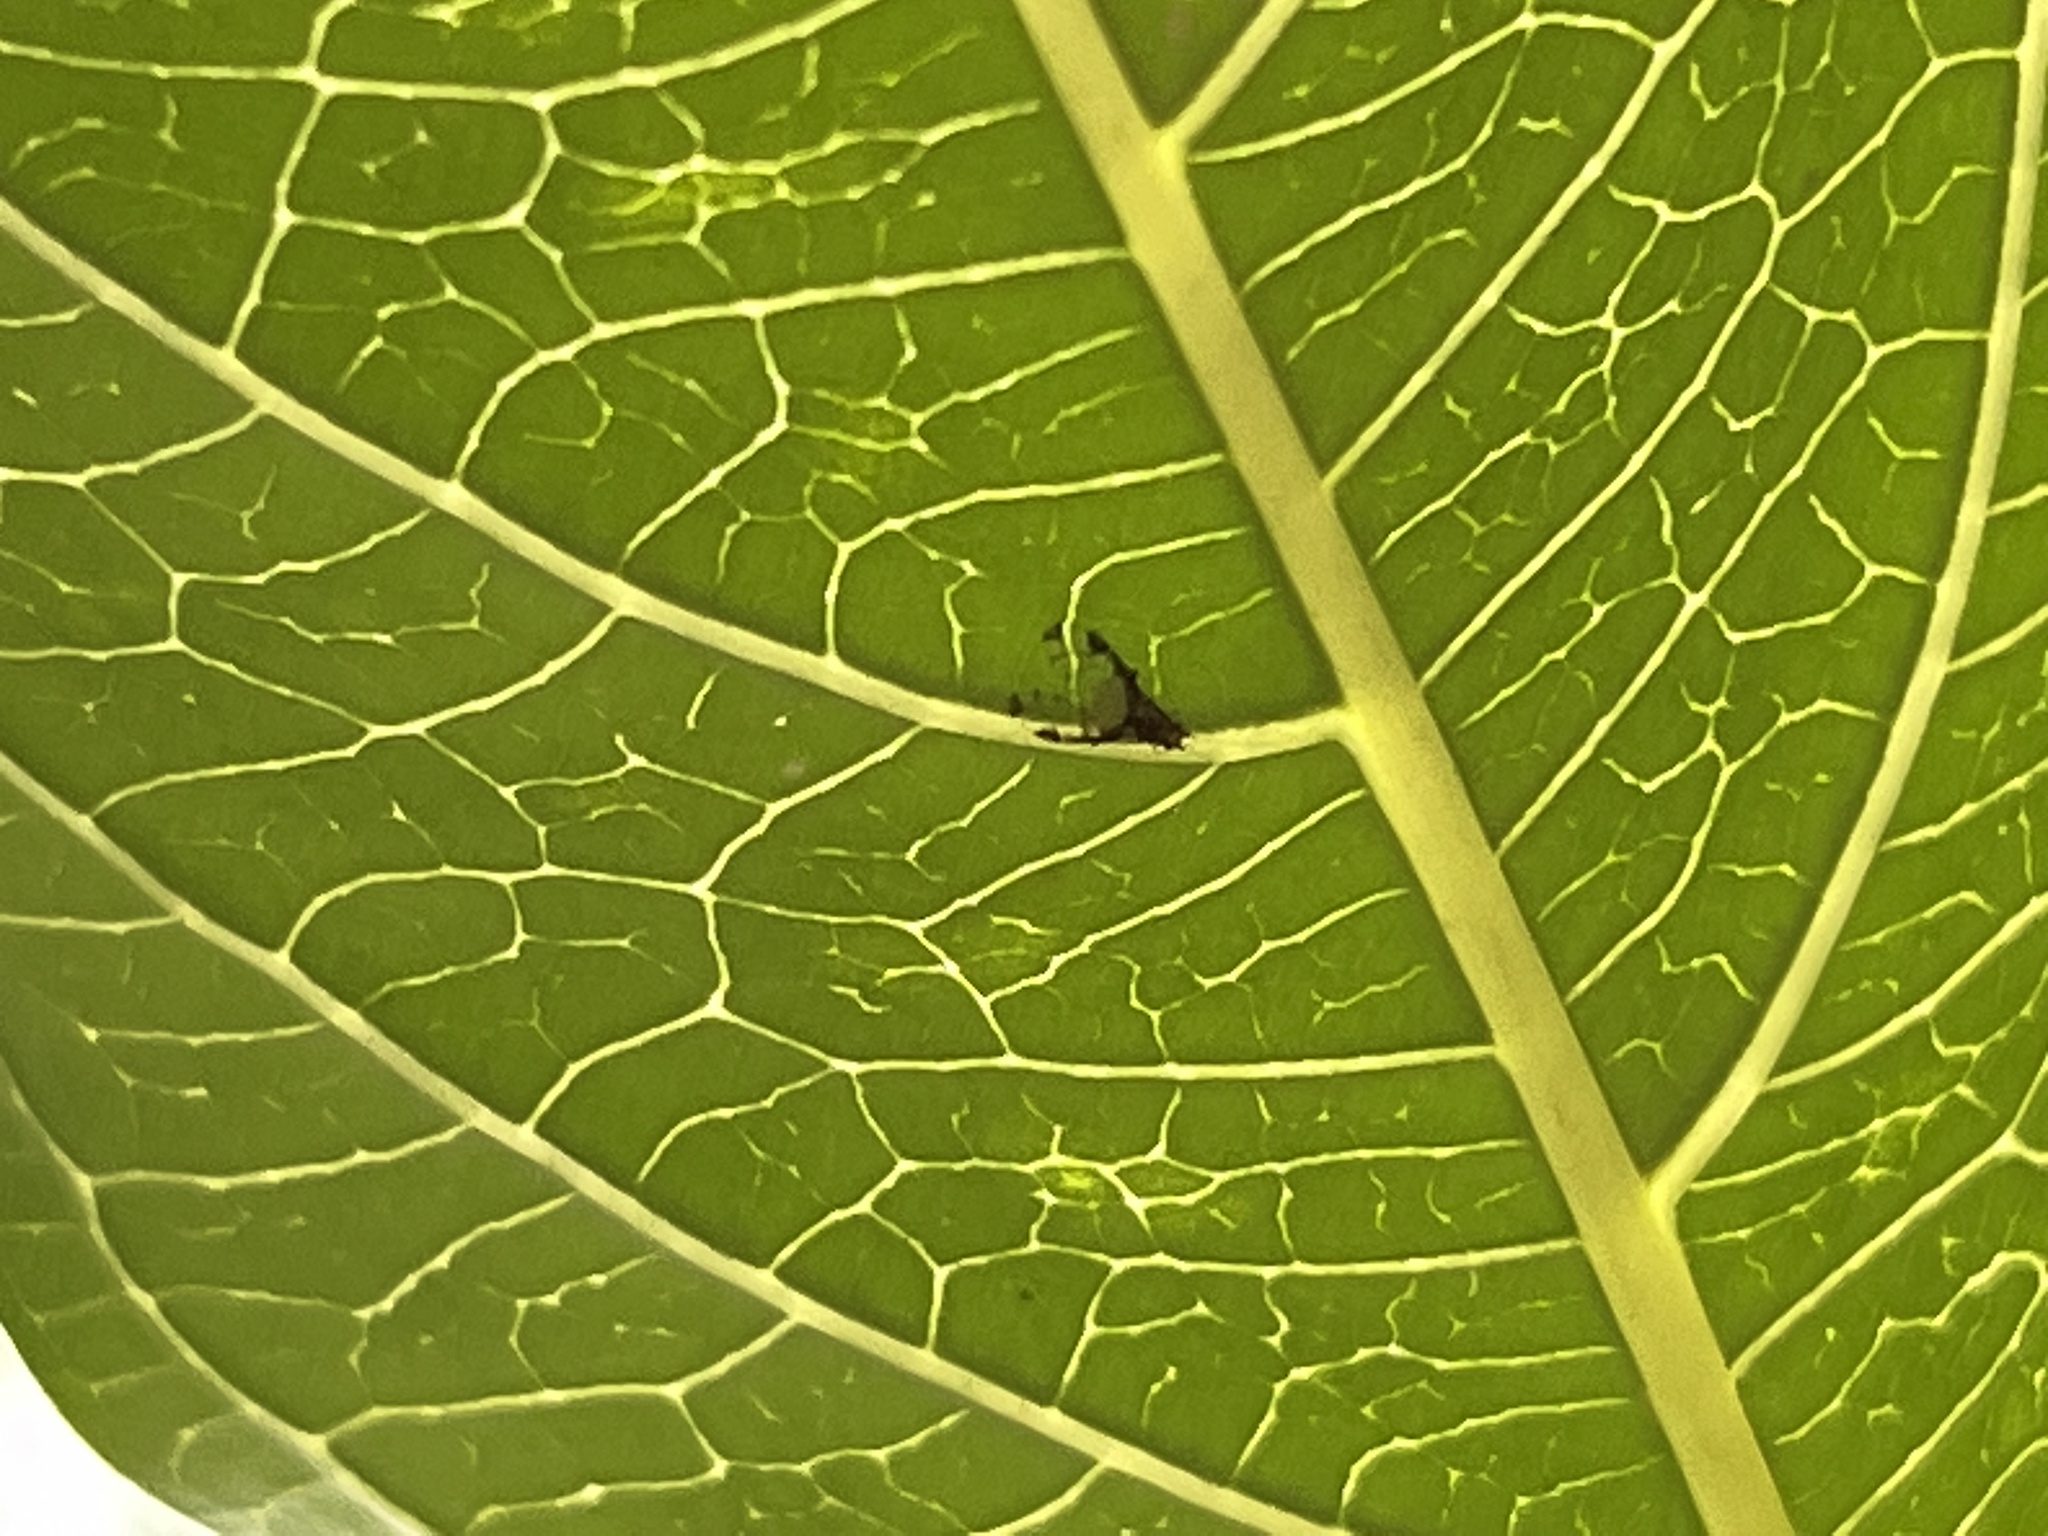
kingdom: Animalia
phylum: Arthropoda
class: Insecta
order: Hemiptera
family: Aphididae
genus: Sarucallis
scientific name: Sarucallis kahawaluokalani
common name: Crapemyrtle aphid
